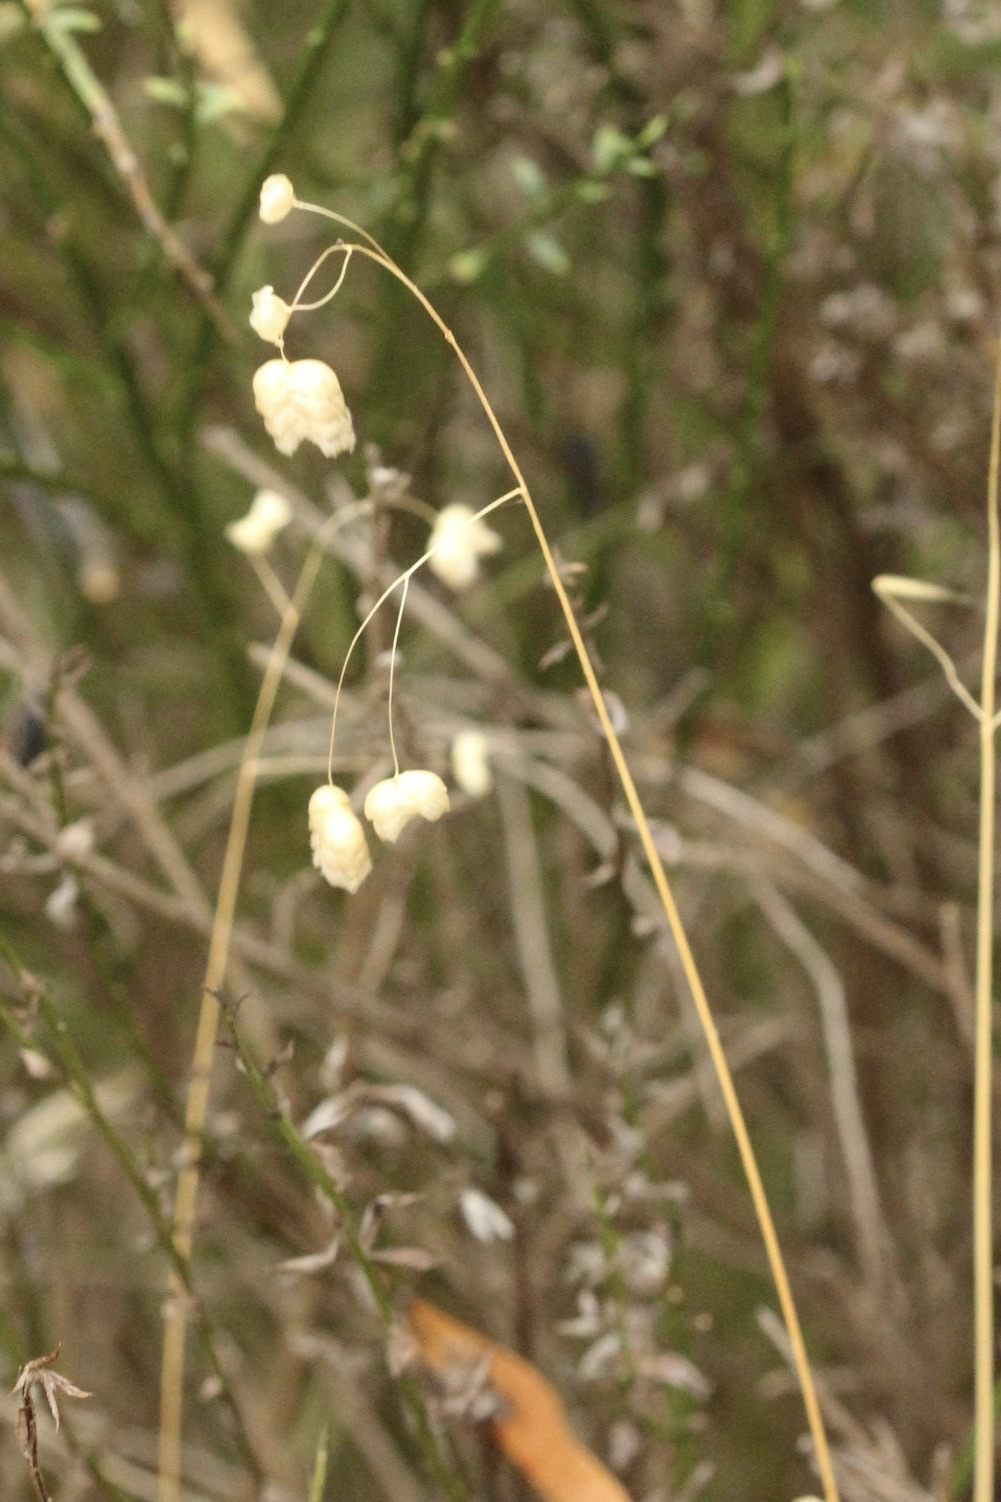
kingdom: Plantae
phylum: Tracheophyta
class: Liliopsida
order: Poales
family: Poaceae
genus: Briza
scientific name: Briza maxima
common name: Big quakinggrass
